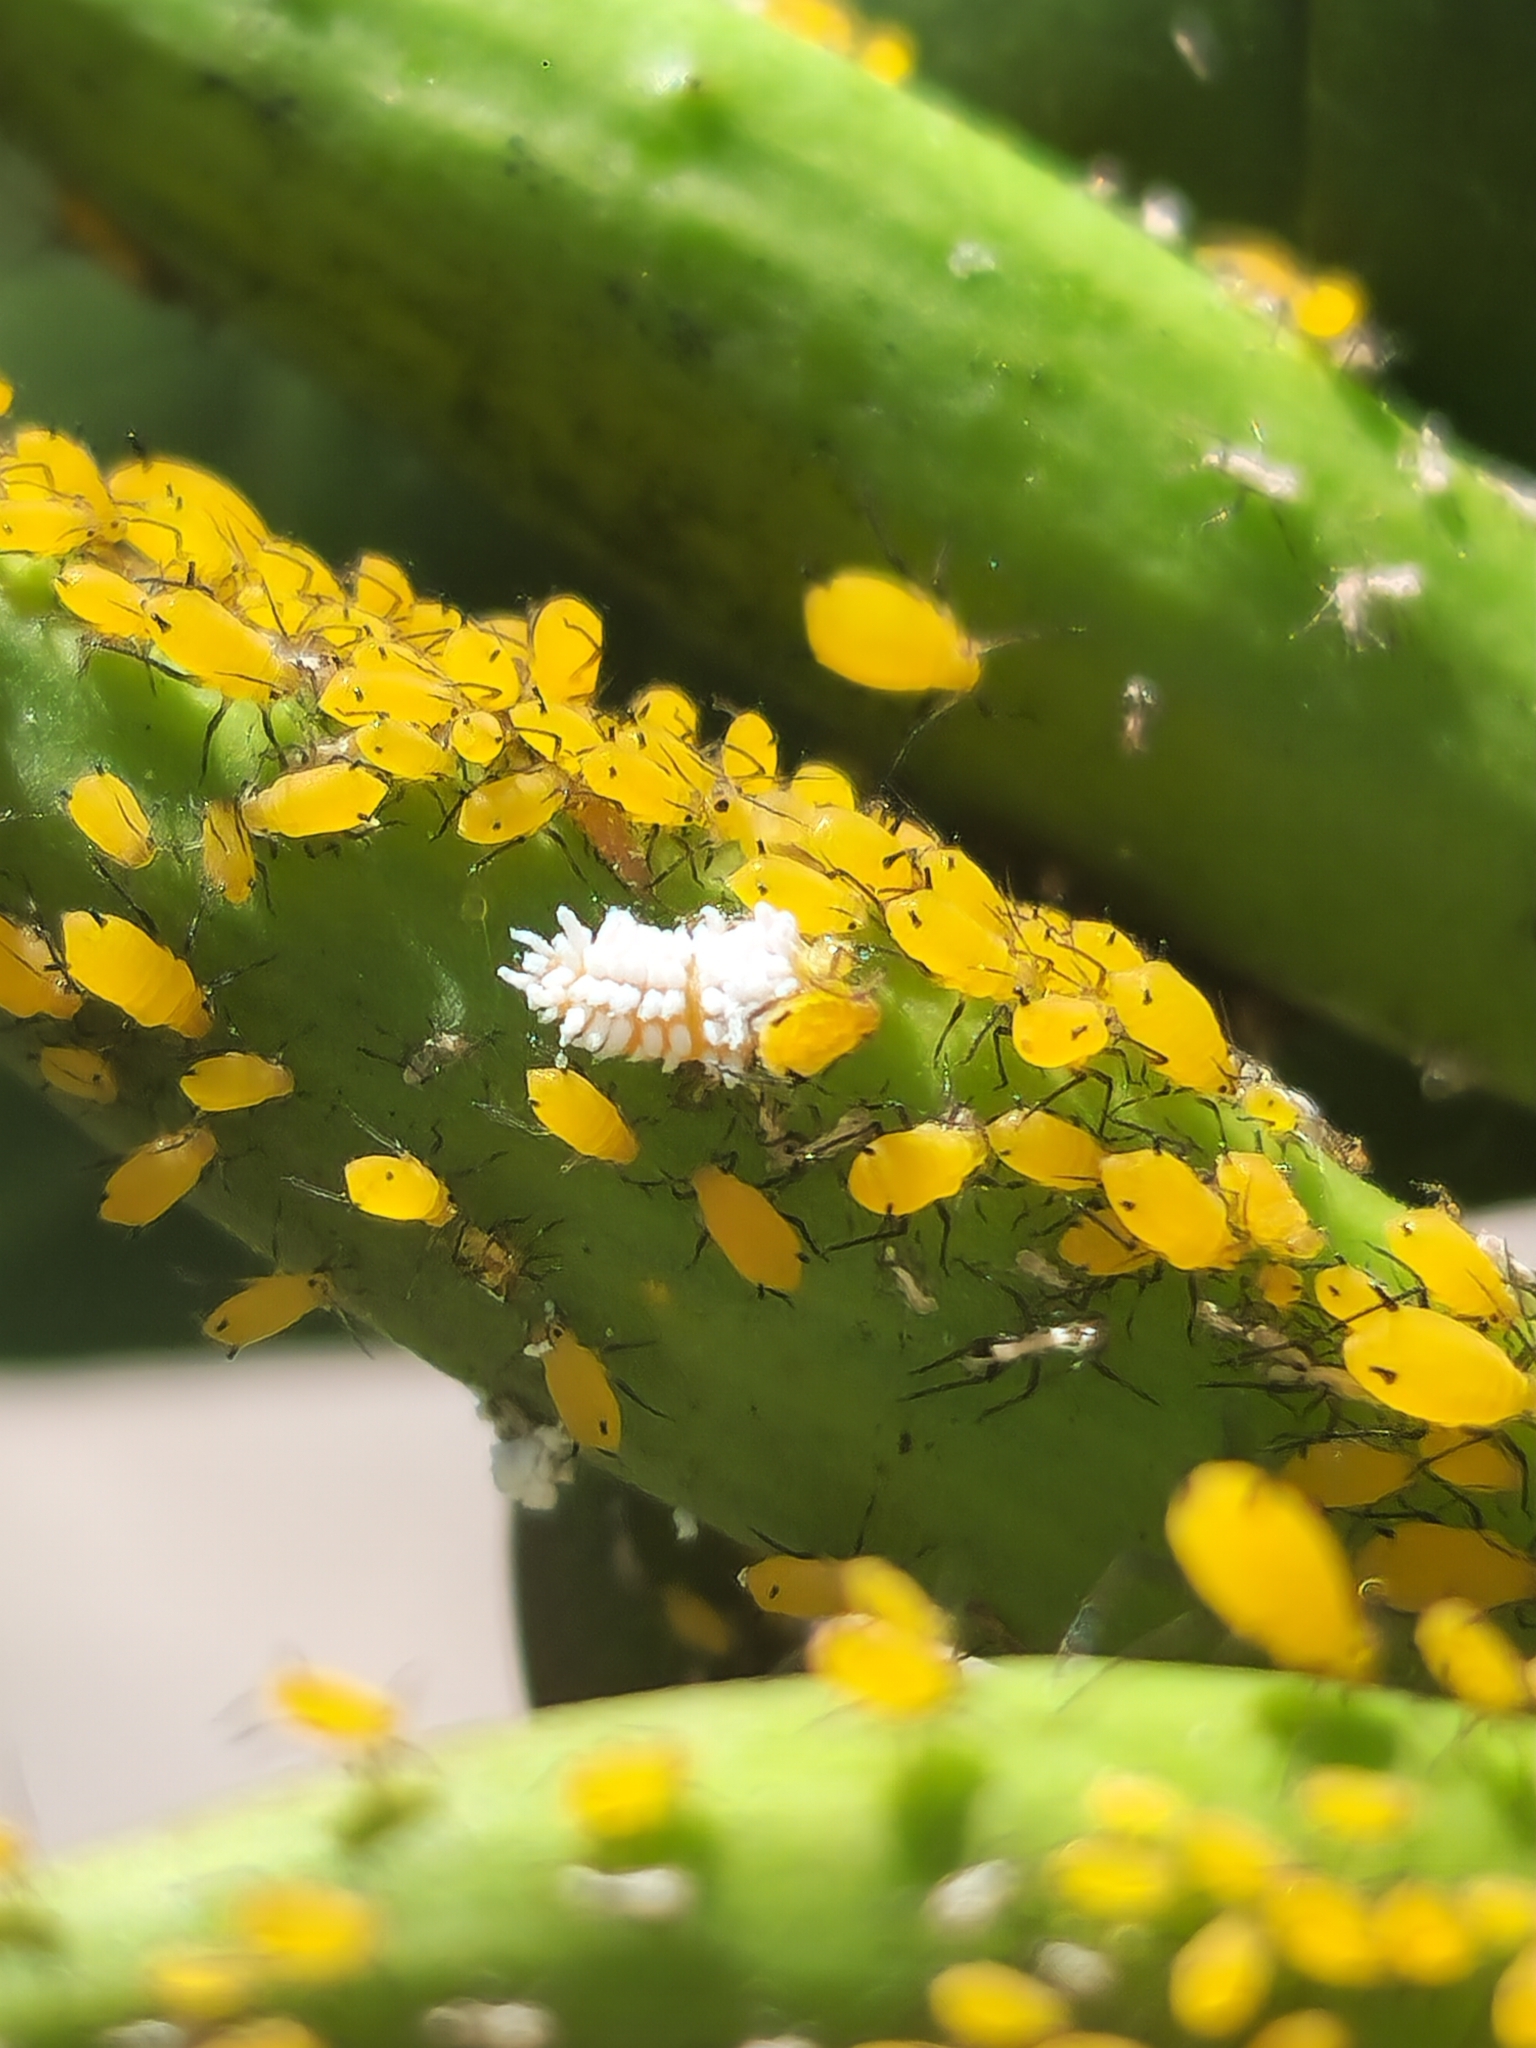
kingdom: Animalia
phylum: Arthropoda
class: Insecta
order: Coleoptera
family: Coccinellidae
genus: Cryptolaemus
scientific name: Cryptolaemus montrouzieri
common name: Mealybug destroyer
